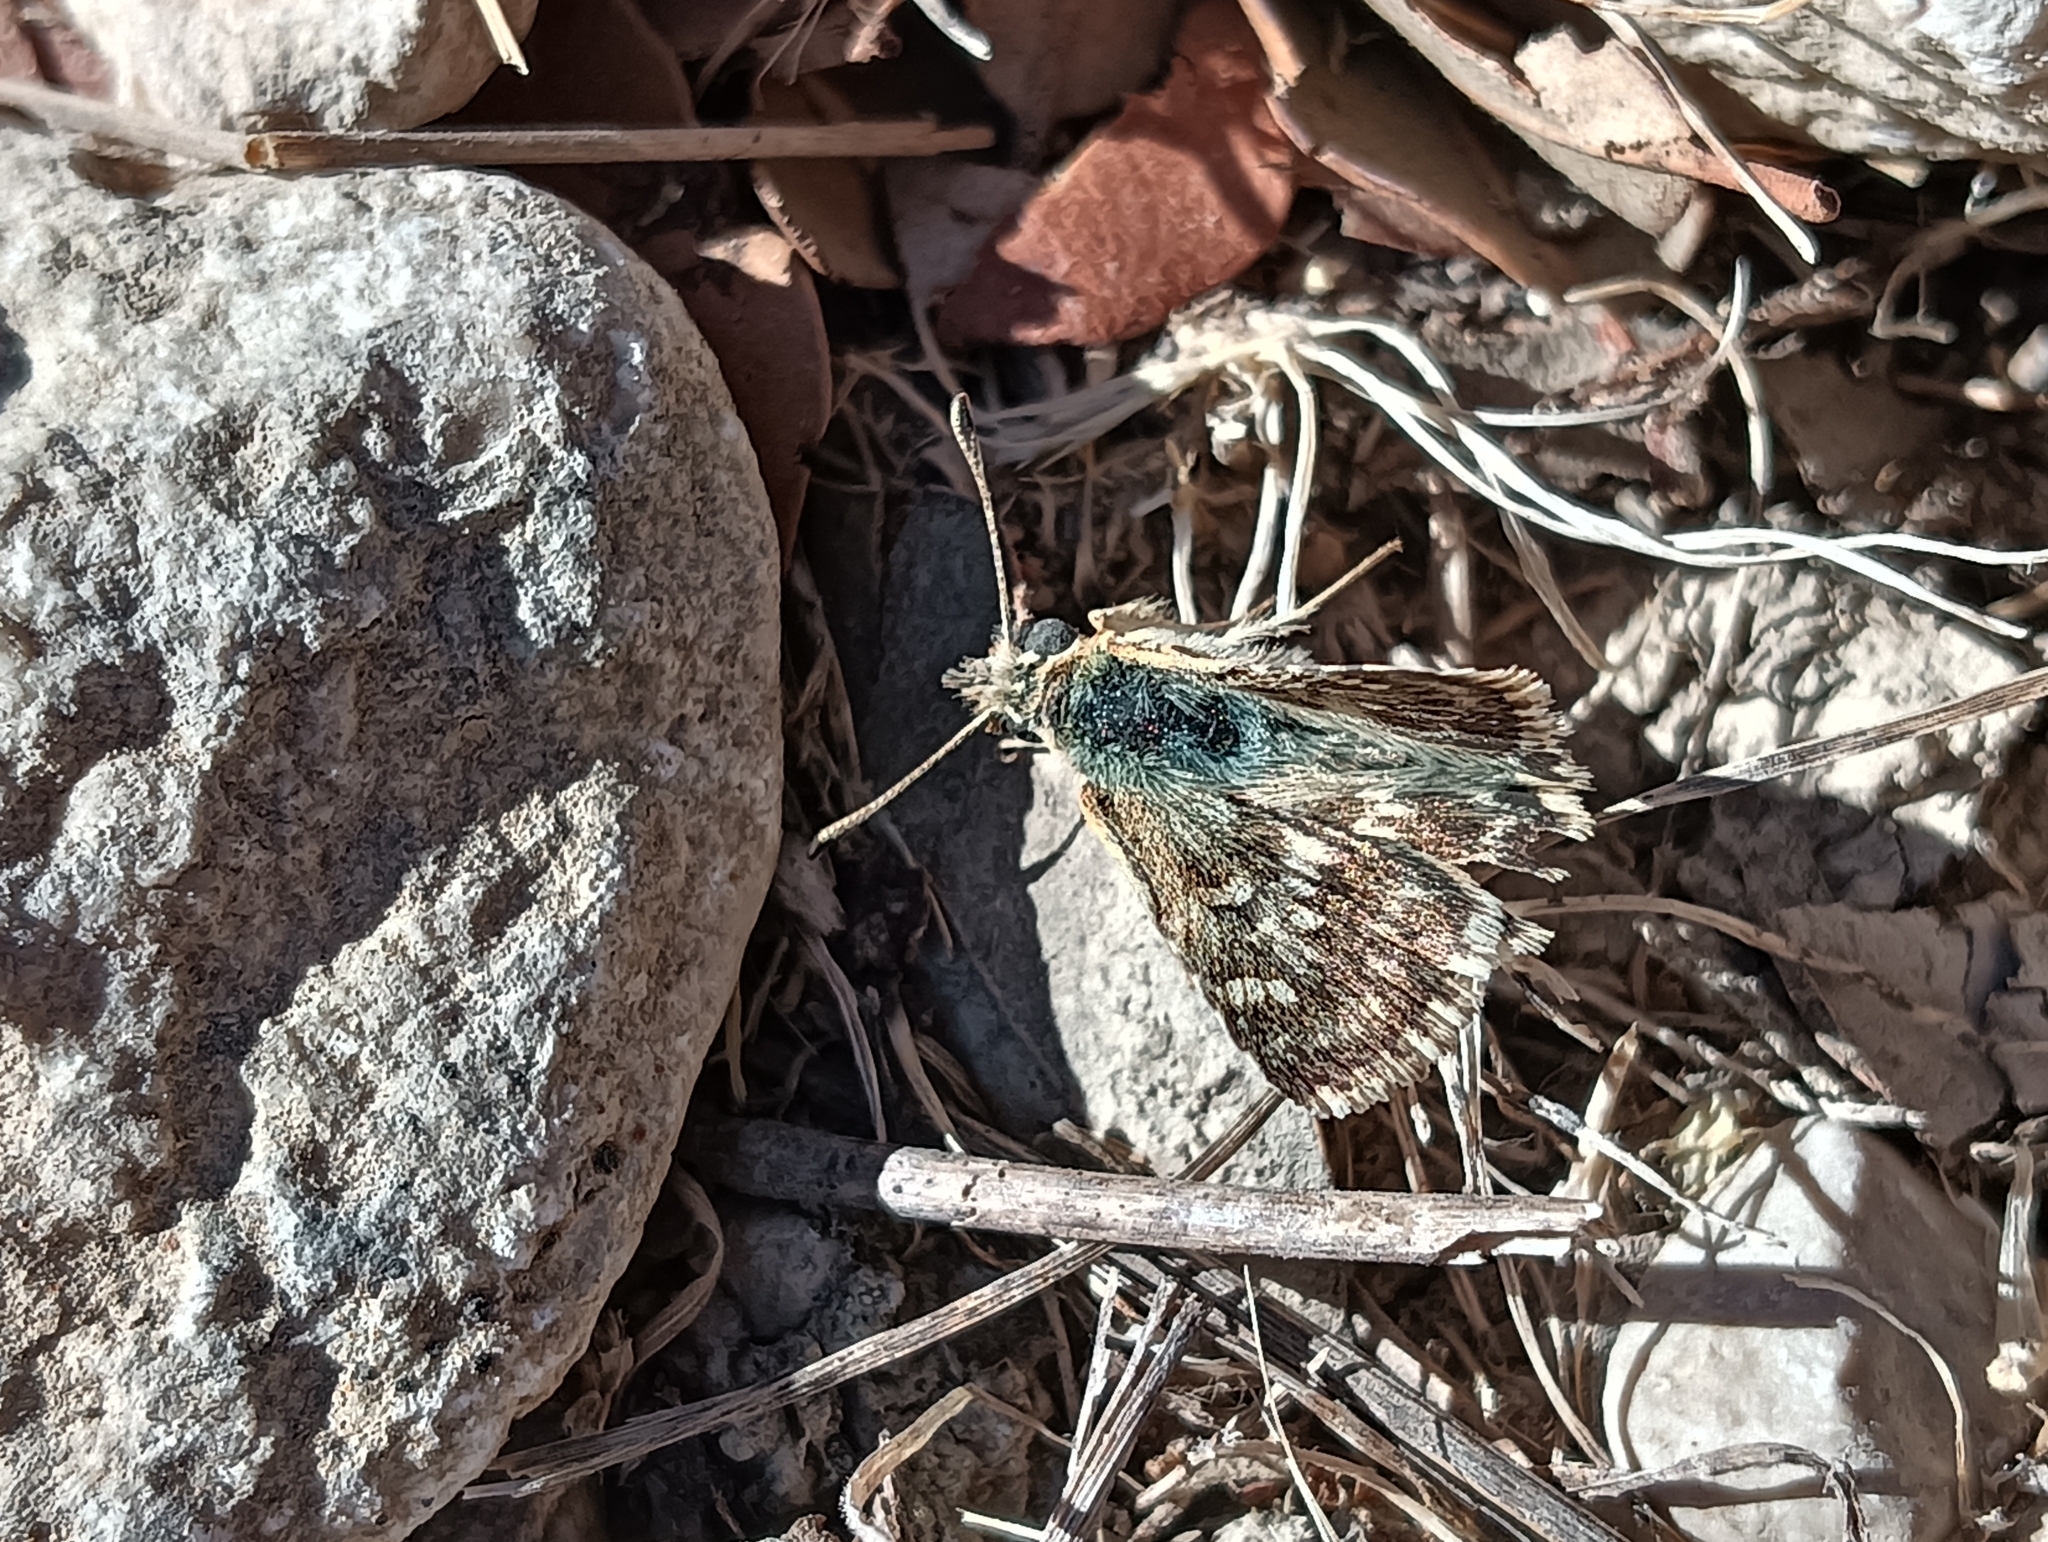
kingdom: Animalia
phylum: Arthropoda
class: Insecta
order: Lepidoptera
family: Hesperiidae
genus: Syrichtus
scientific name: Syrichtus Muschampia proto
